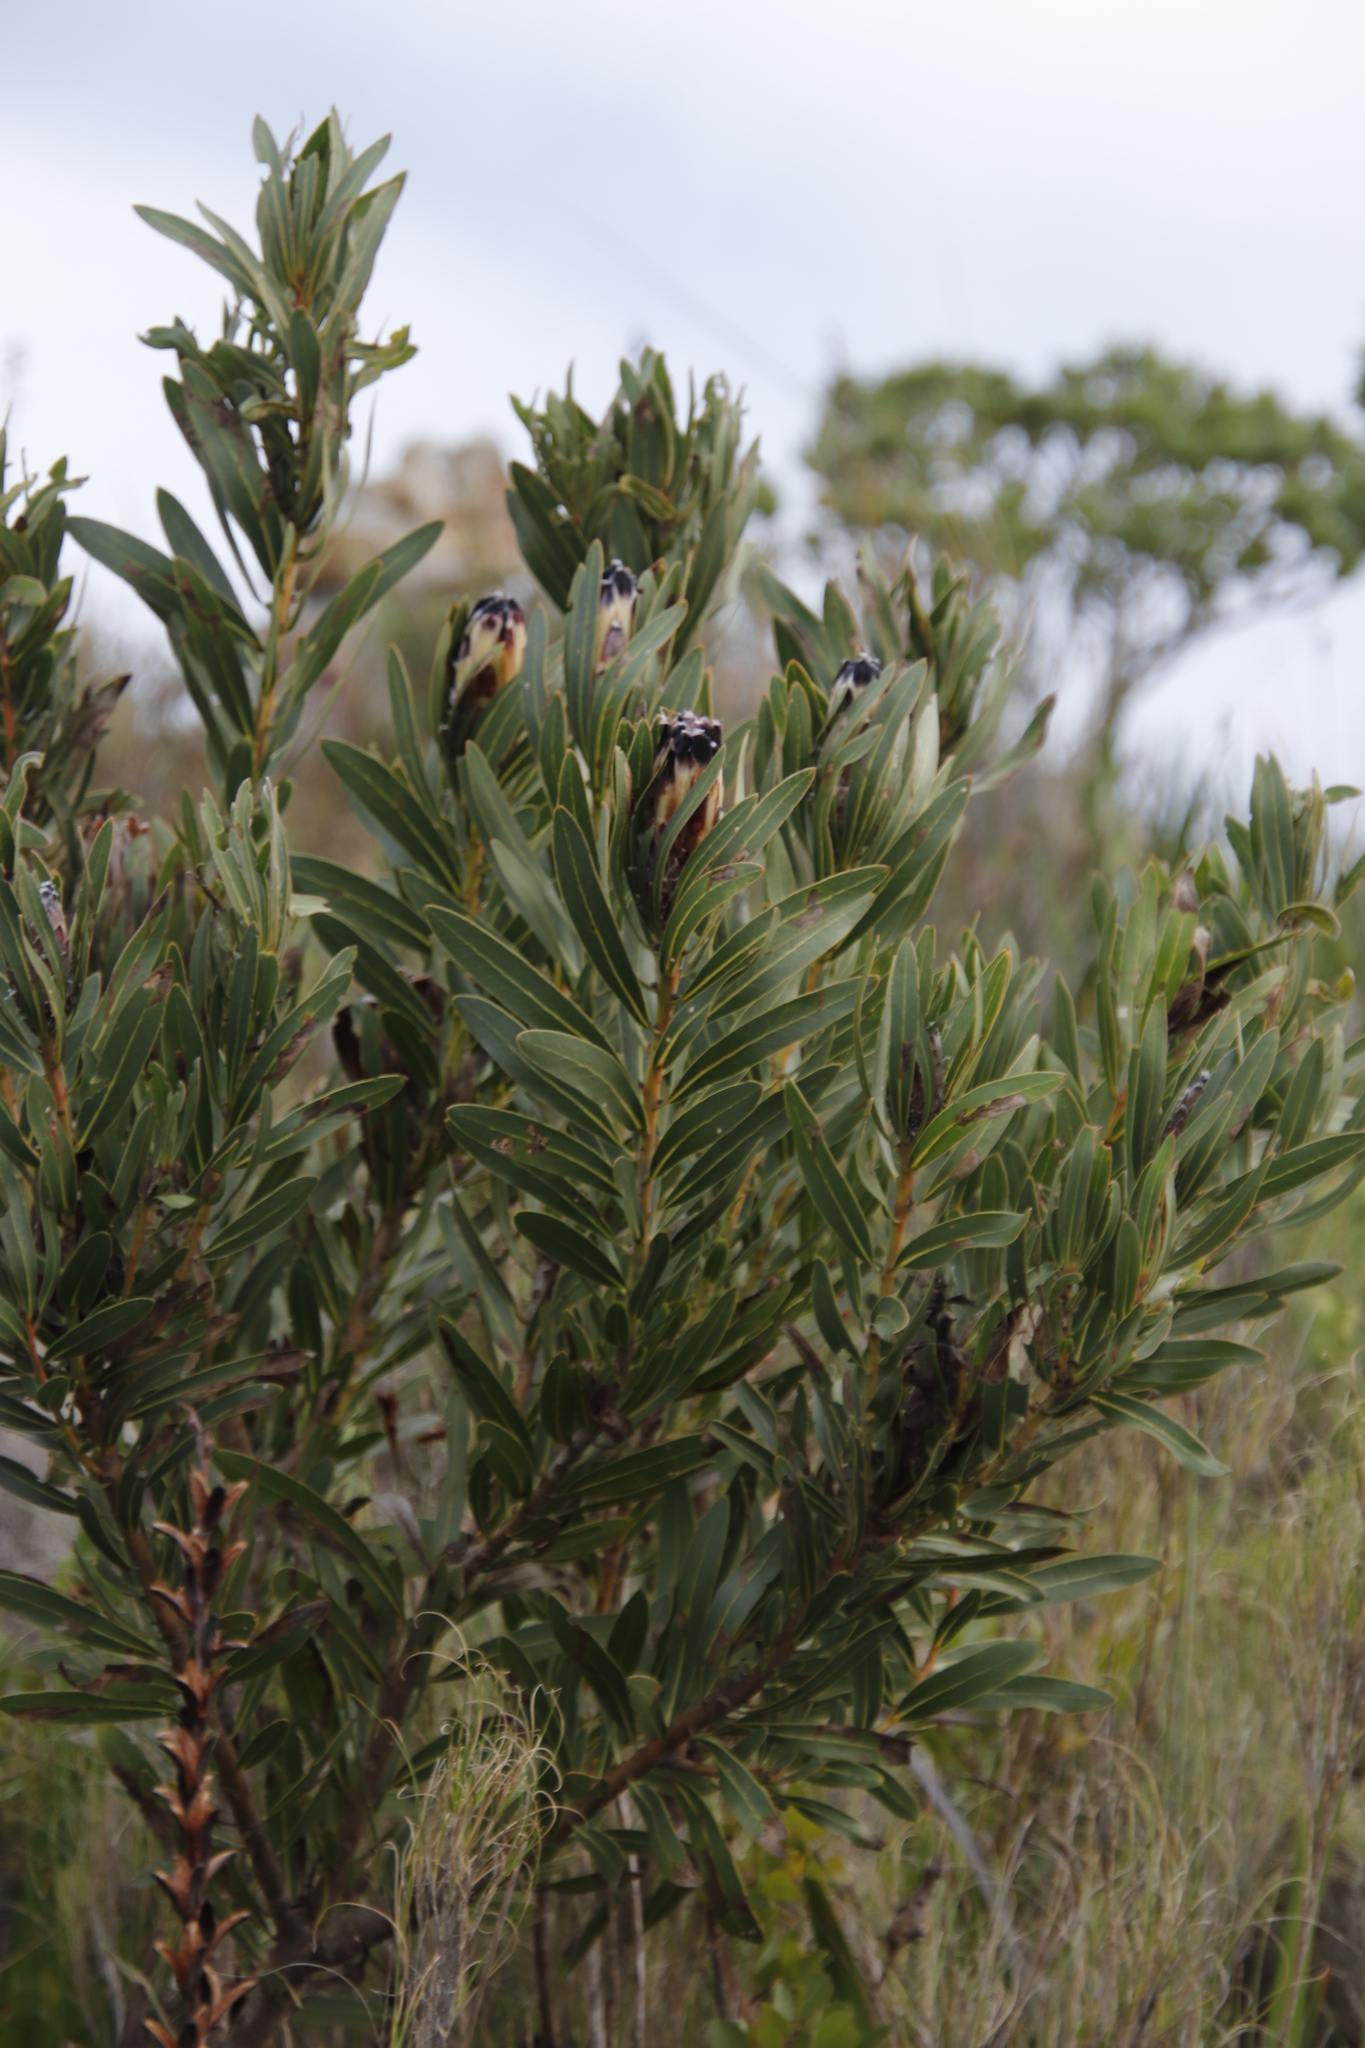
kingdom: Plantae
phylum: Tracheophyta
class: Magnoliopsida
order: Proteales
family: Proteaceae
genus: Protea
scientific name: Protea lepidocarpodendron
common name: Black-bearded protea
